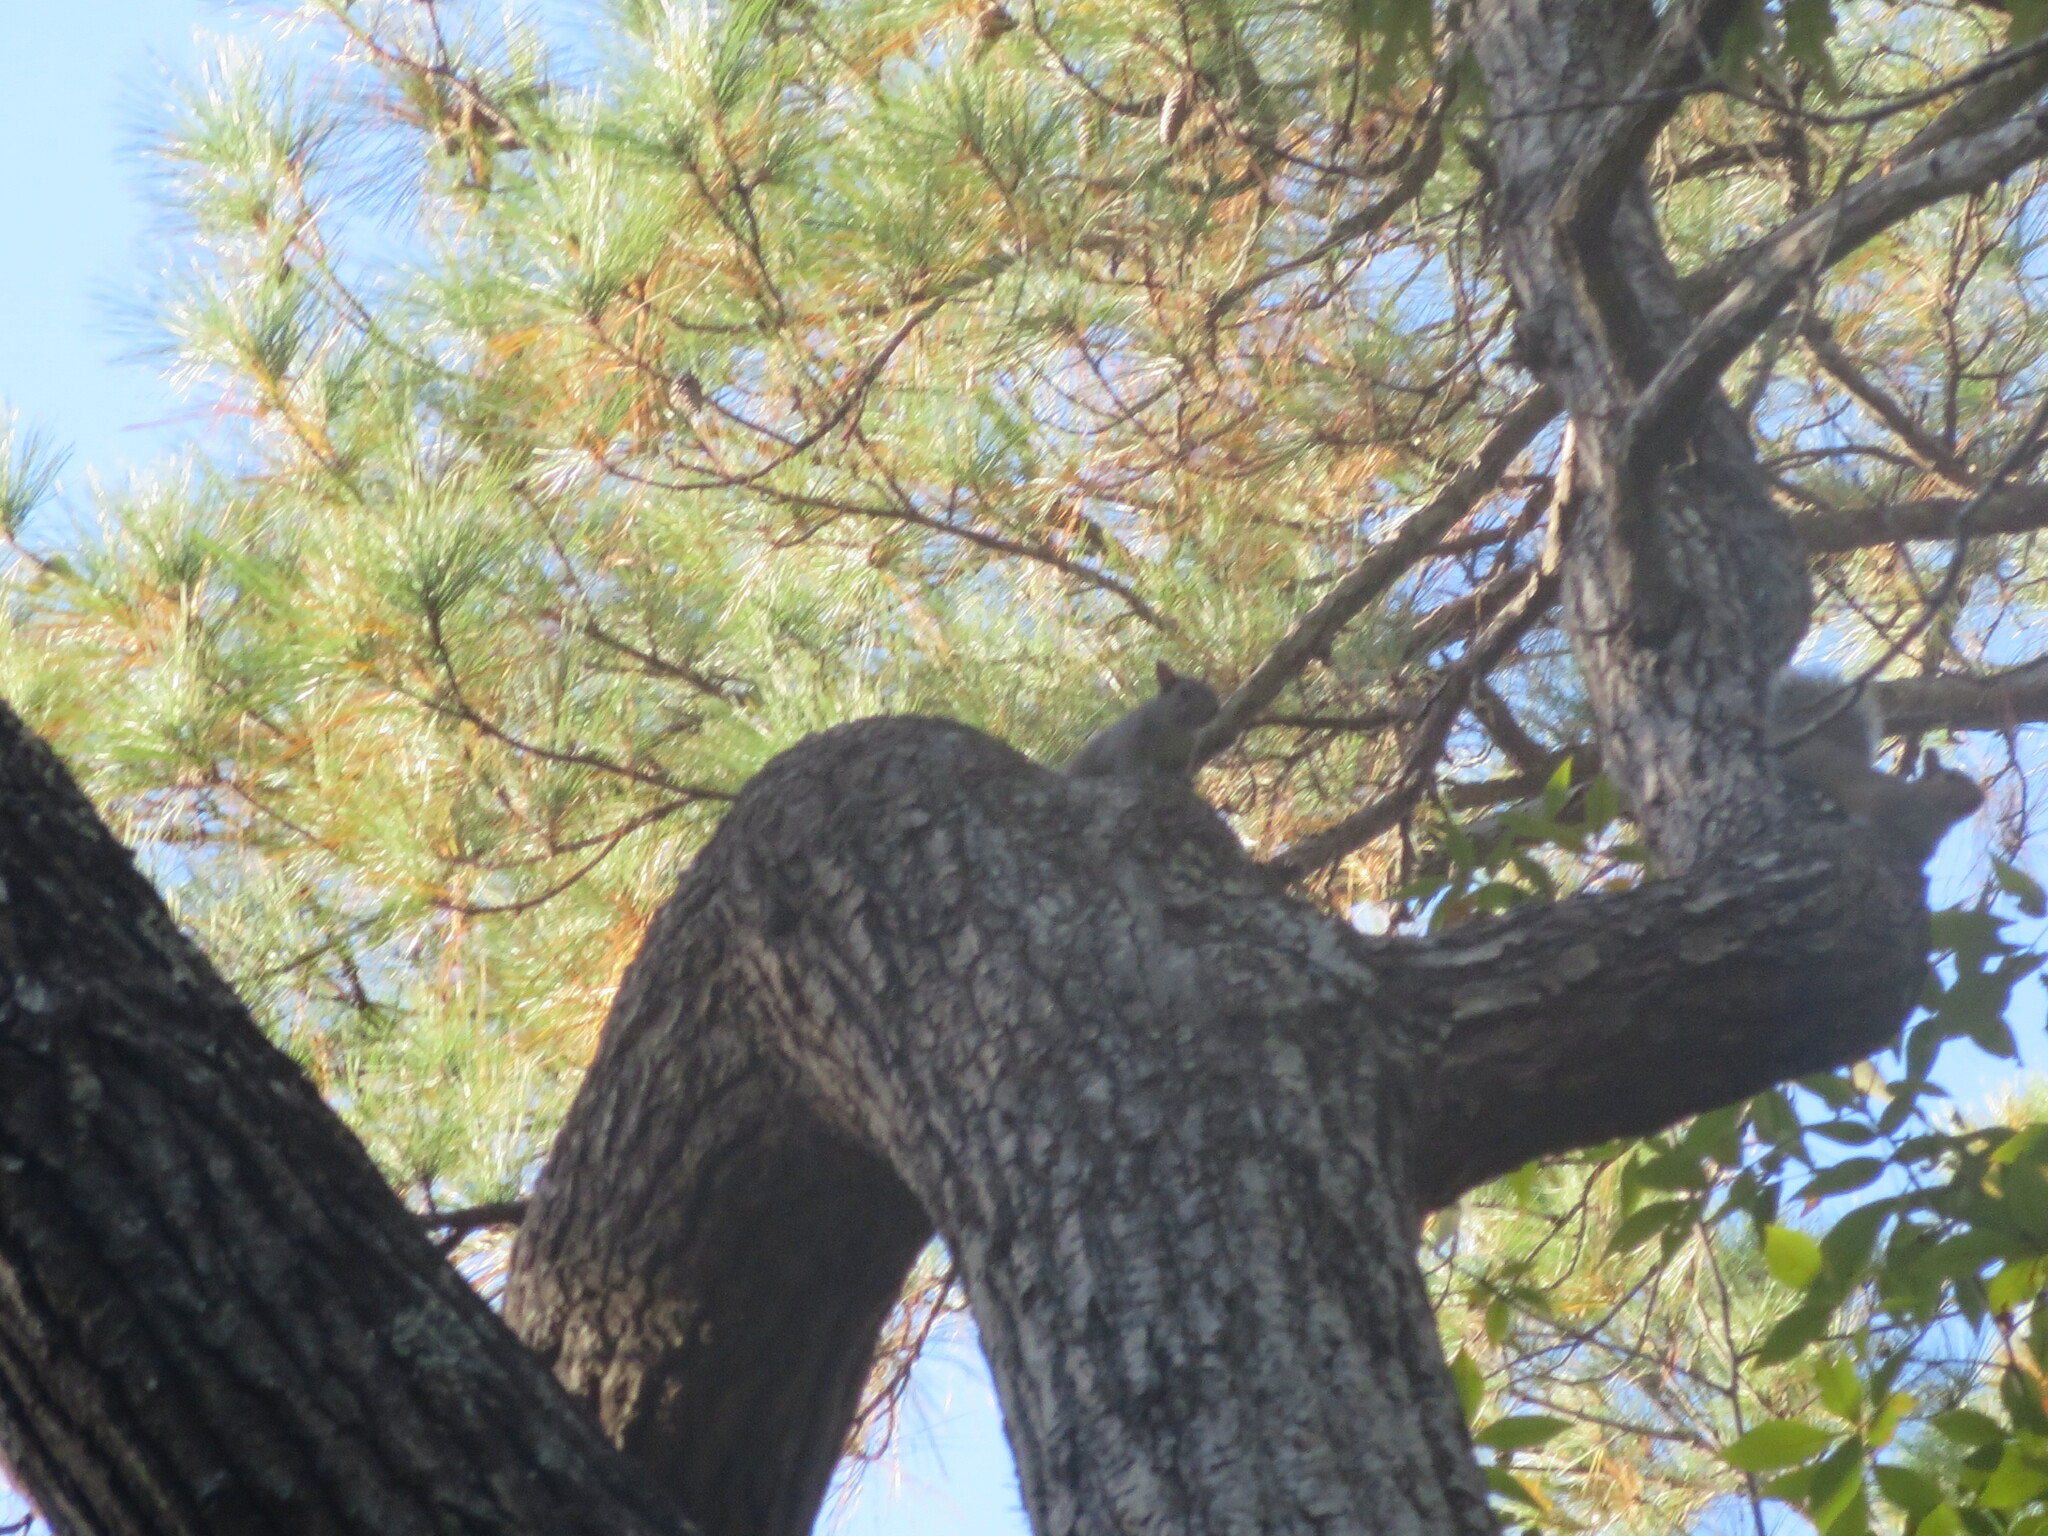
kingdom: Animalia
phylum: Chordata
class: Mammalia
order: Rodentia
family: Sciuridae
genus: Sciurus
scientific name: Sciurus carolinensis
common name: Eastern gray squirrel
